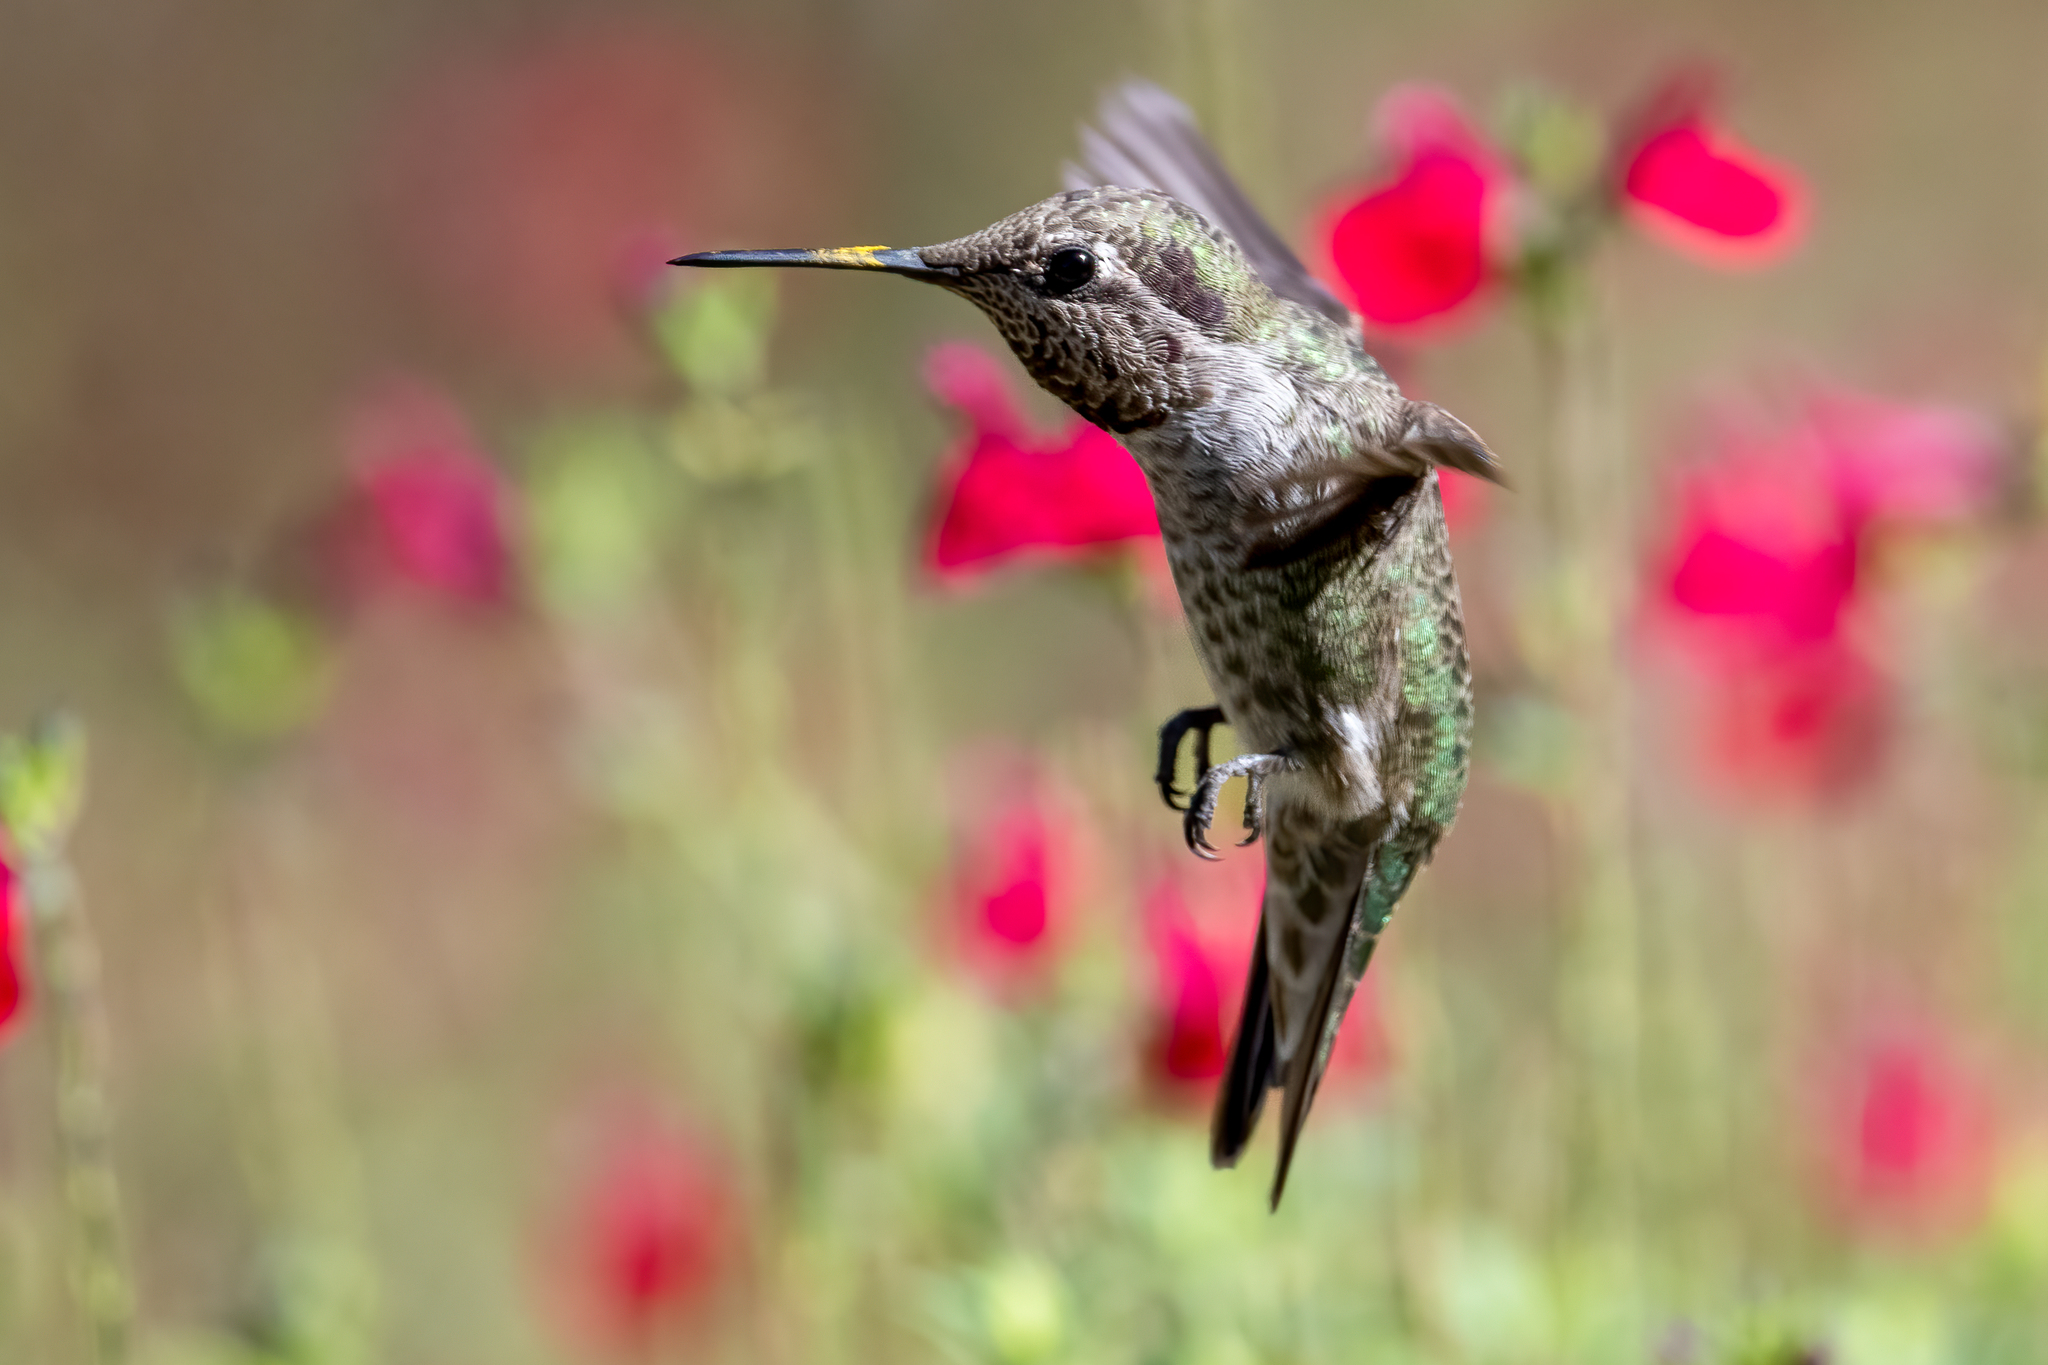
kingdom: Animalia
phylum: Chordata
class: Aves
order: Apodiformes
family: Trochilidae
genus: Calypte
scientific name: Calypte anna
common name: Anna's hummingbird
